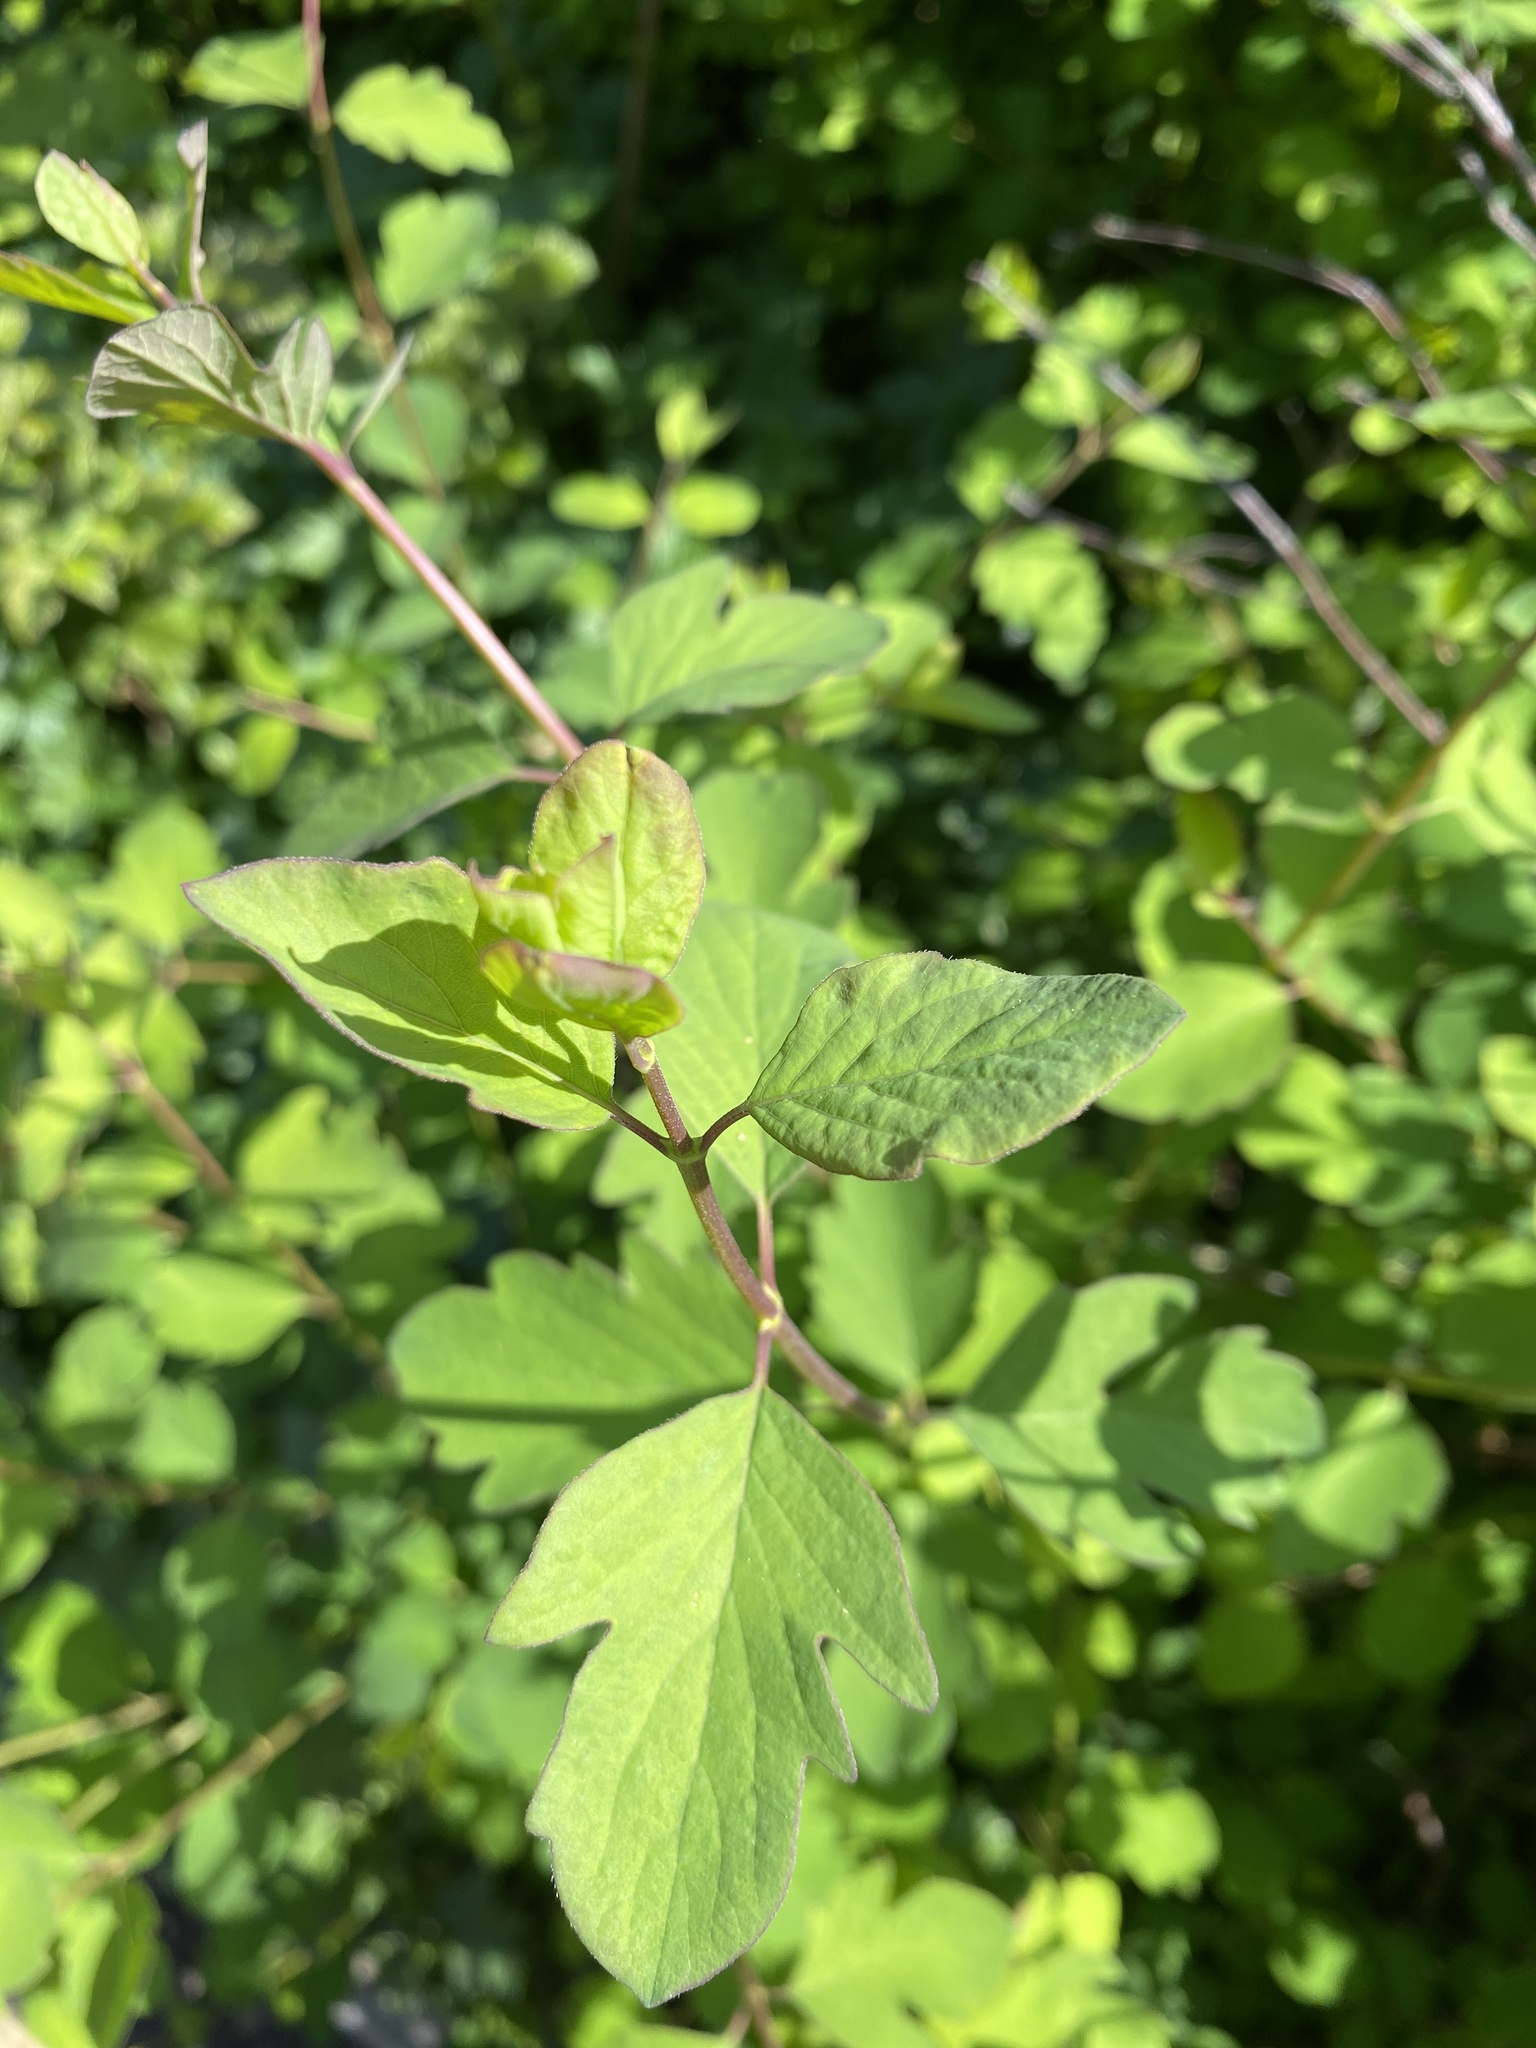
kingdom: Plantae
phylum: Tracheophyta
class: Magnoliopsida
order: Dipsacales
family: Caprifoliaceae
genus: Symphoricarpos
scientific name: Symphoricarpos albus
